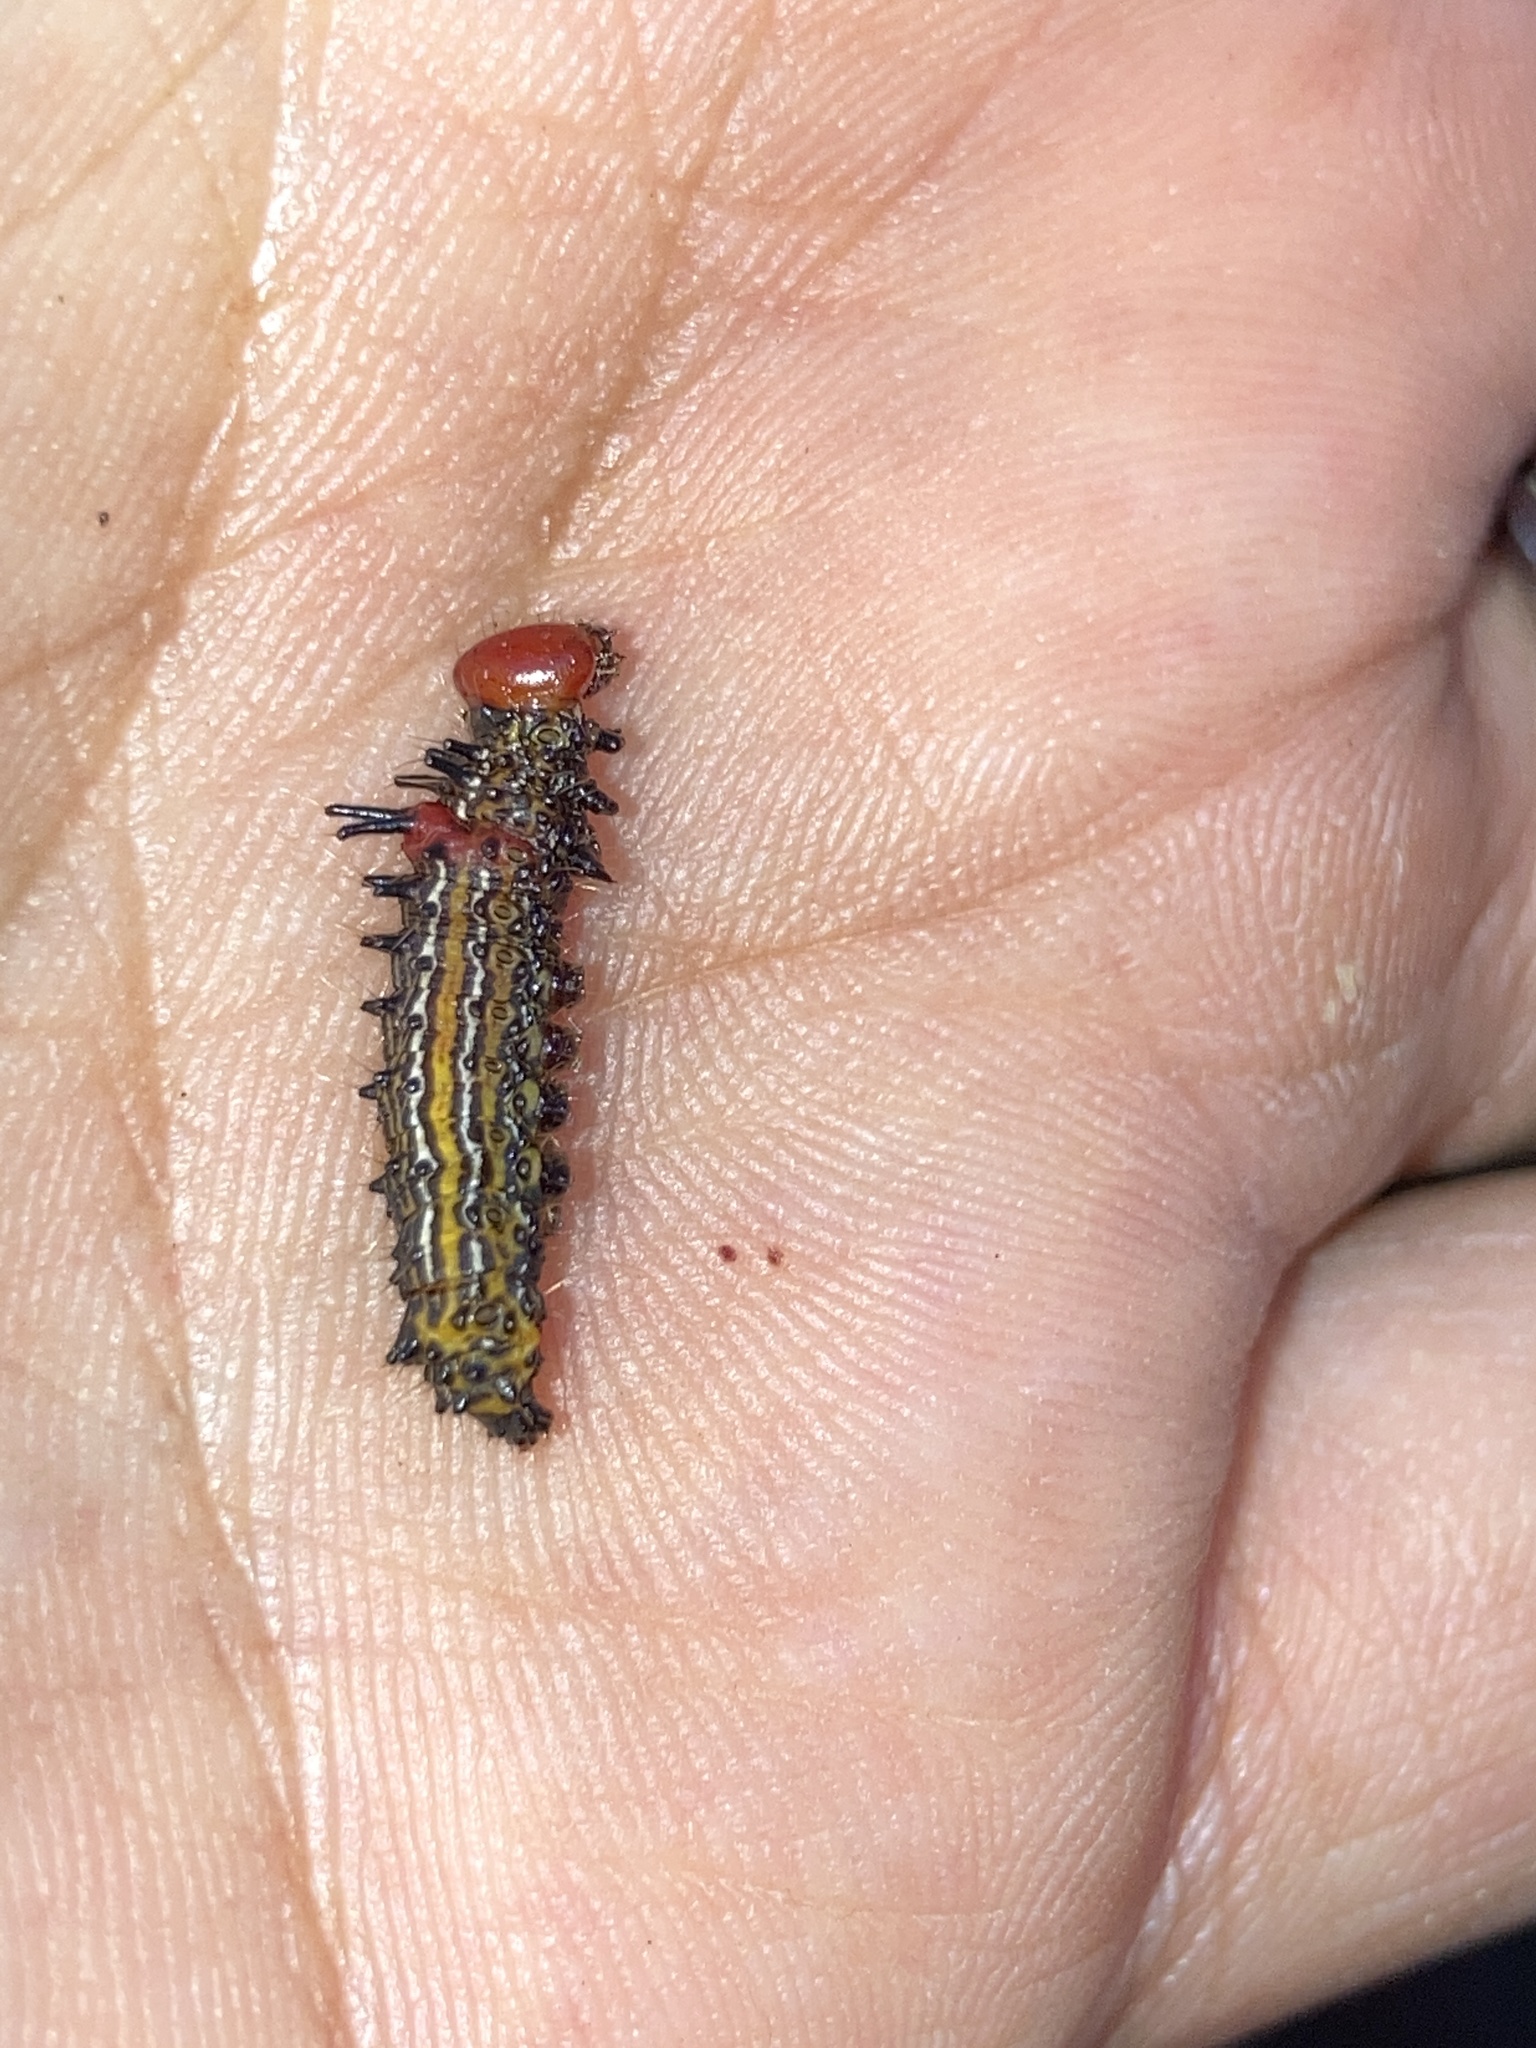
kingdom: Animalia
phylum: Arthropoda
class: Insecta
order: Lepidoptera
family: Notodontidae
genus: Schizura
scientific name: Schizura
